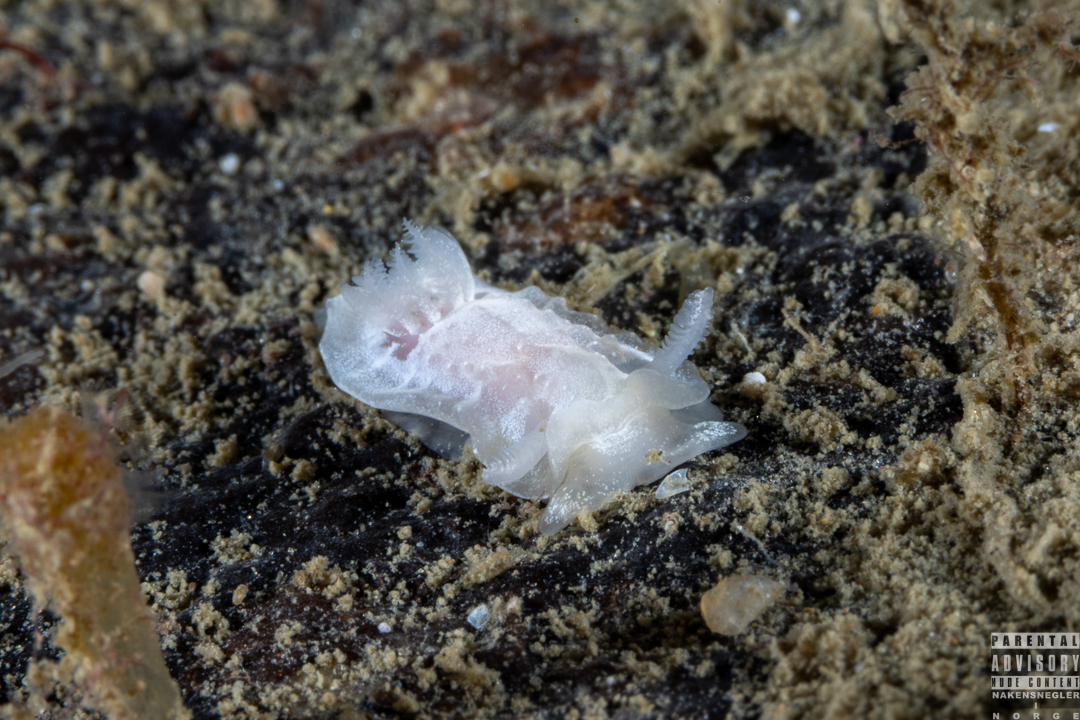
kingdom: Animalia
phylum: Mollusca
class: Gastropoda
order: Nudibranchia
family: Goniodorididae
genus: Okenia
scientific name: Okenia
